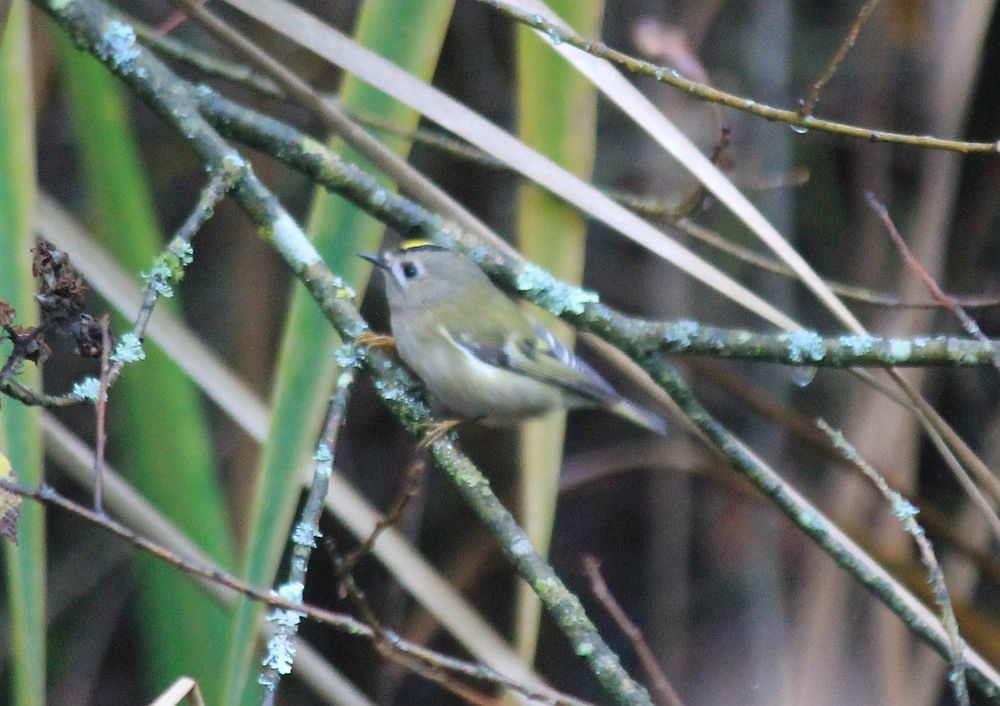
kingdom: Animalia
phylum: Chordata
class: Aves
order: Passeriformes
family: Regulidae
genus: Regulus
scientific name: Regulus regulus
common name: Goldcrest
